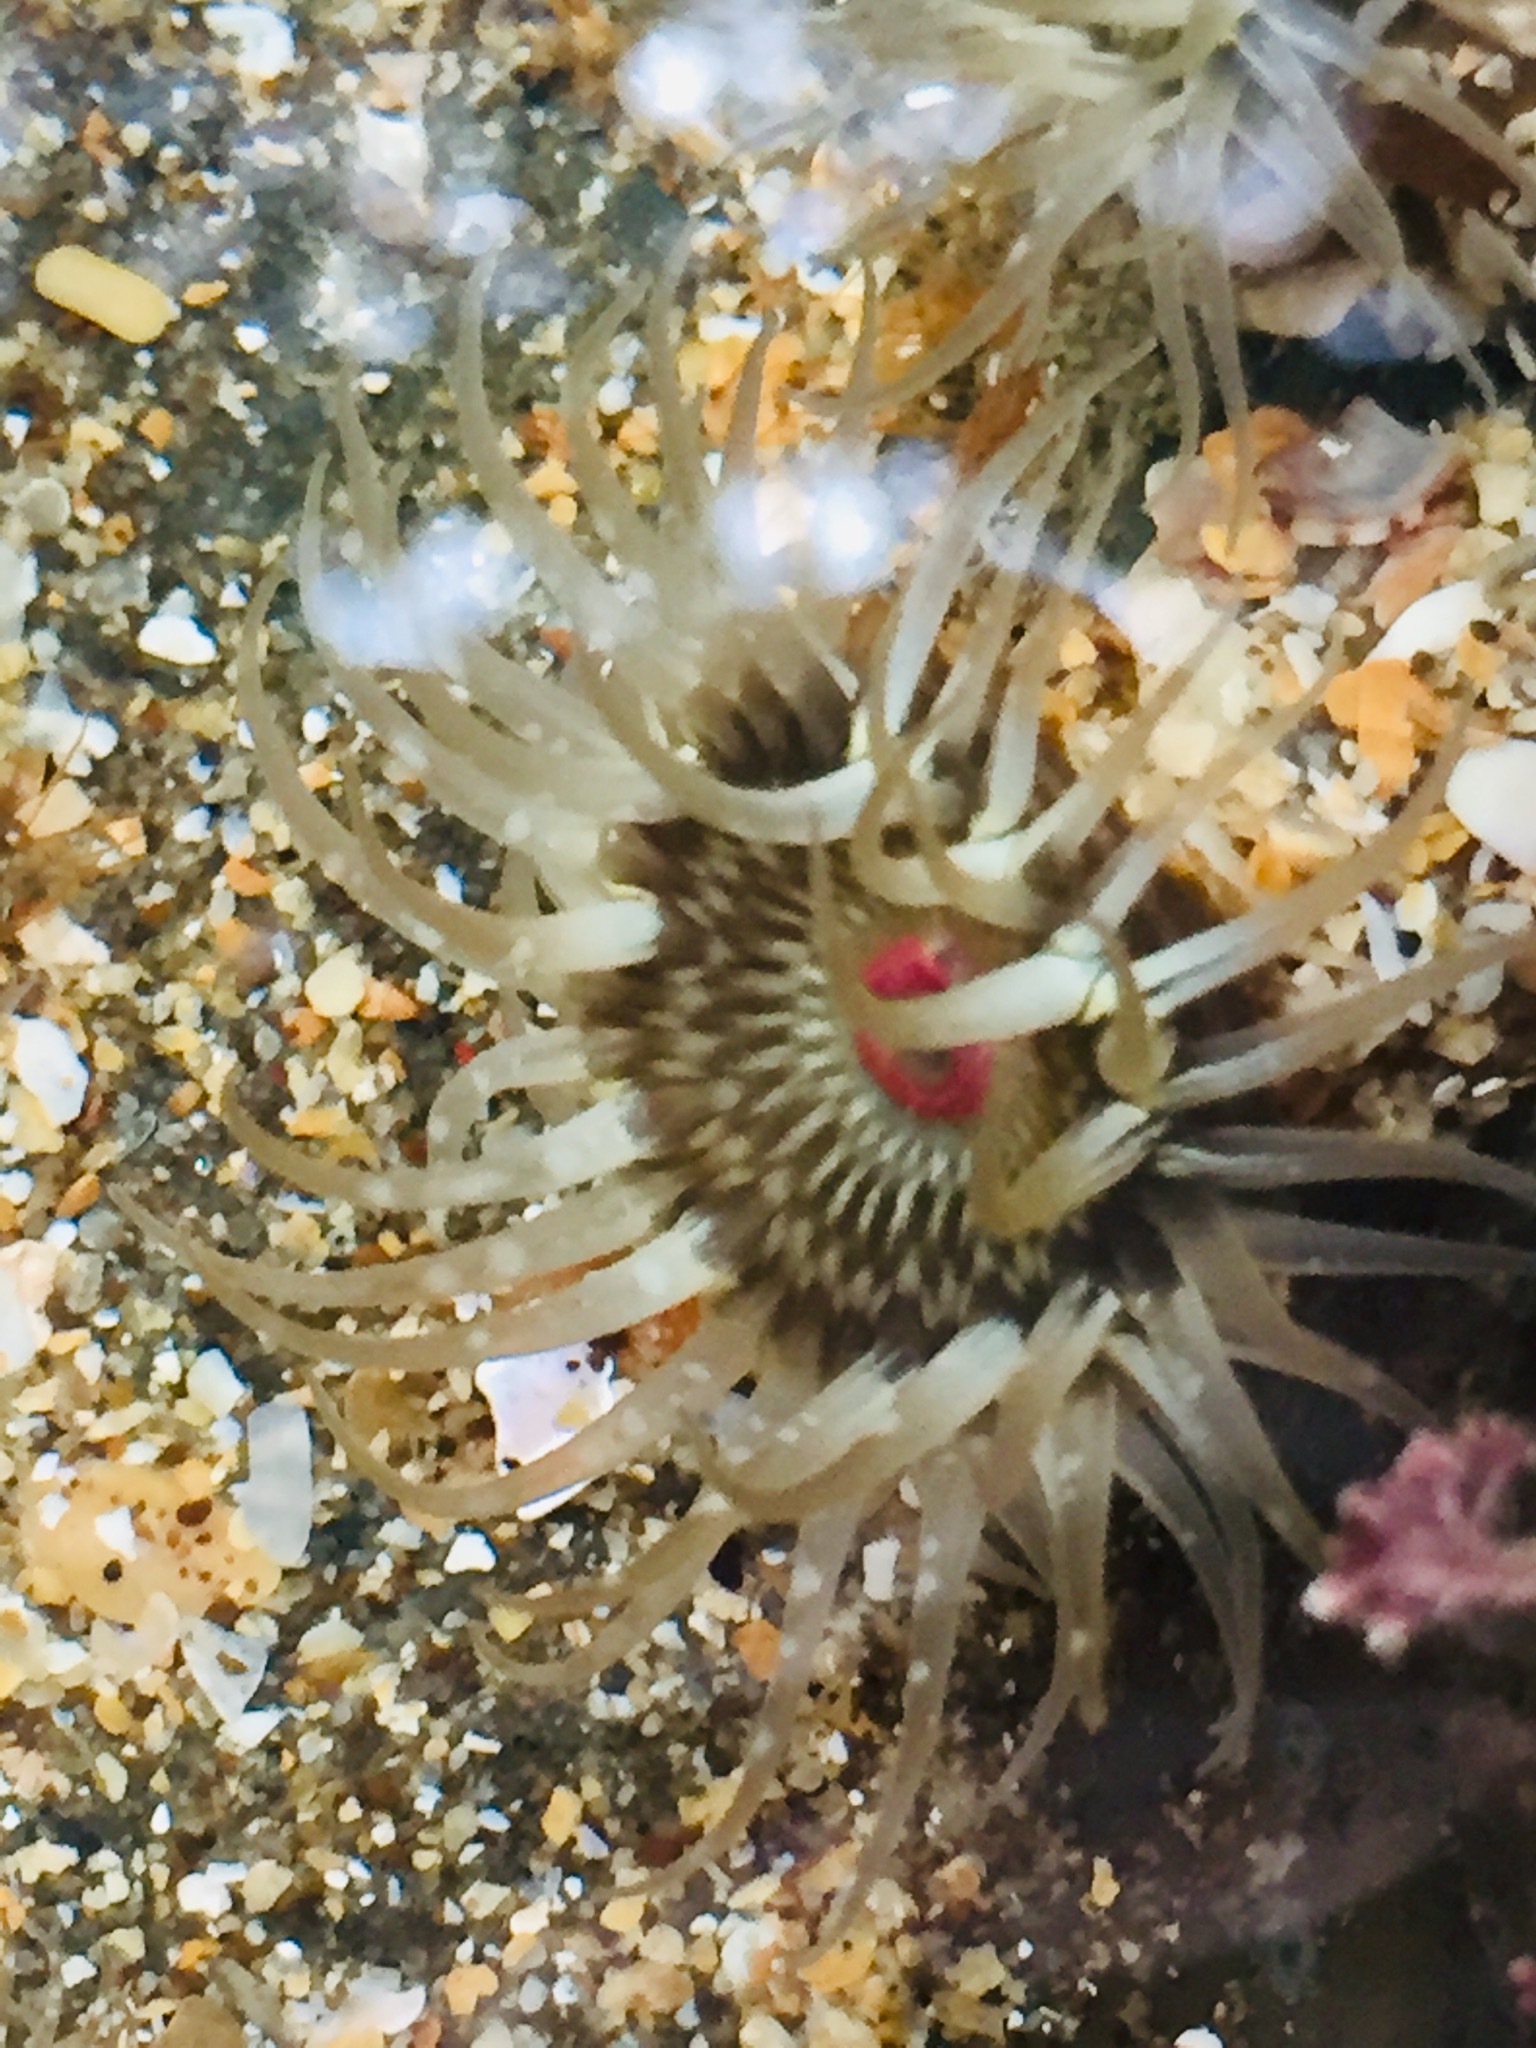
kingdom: Animalia
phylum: Cnidaria
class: Anthozoa
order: Actiniaria
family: Actiniidae
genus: Anthopleura
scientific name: Anthopleura minima
